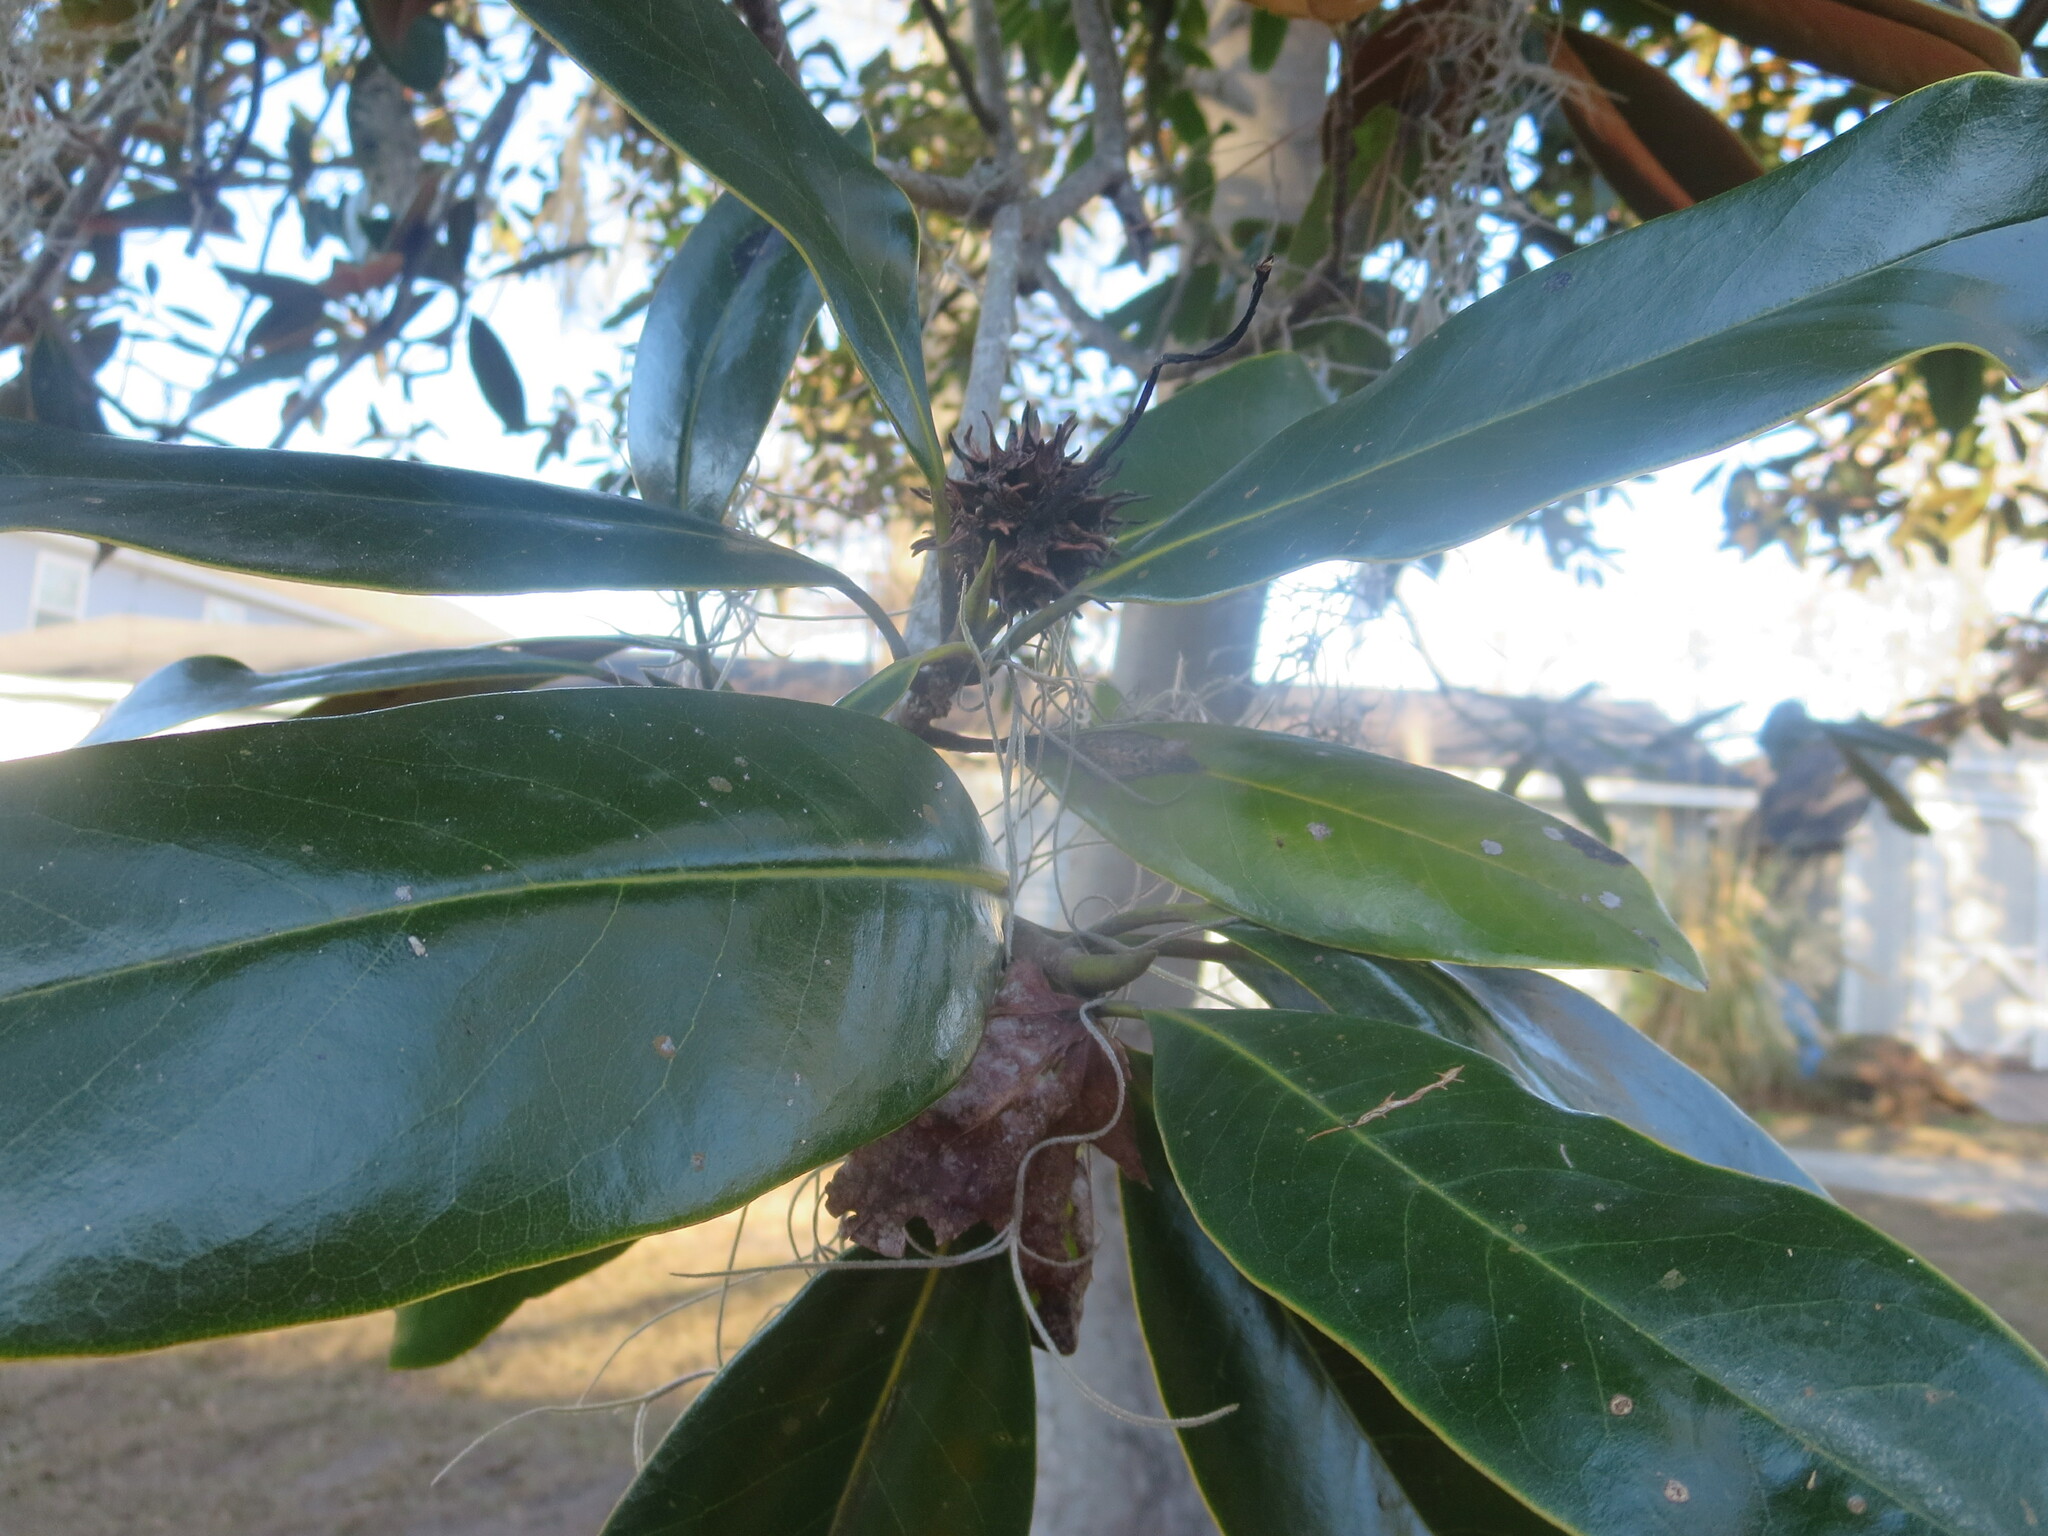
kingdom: Plantae
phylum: Tracheophyta
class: Magnoliopsida
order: Magnoliales
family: Magnoliaceae
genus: Magnolia
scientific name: Magnolia grandiflora
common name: Southern magnolia
